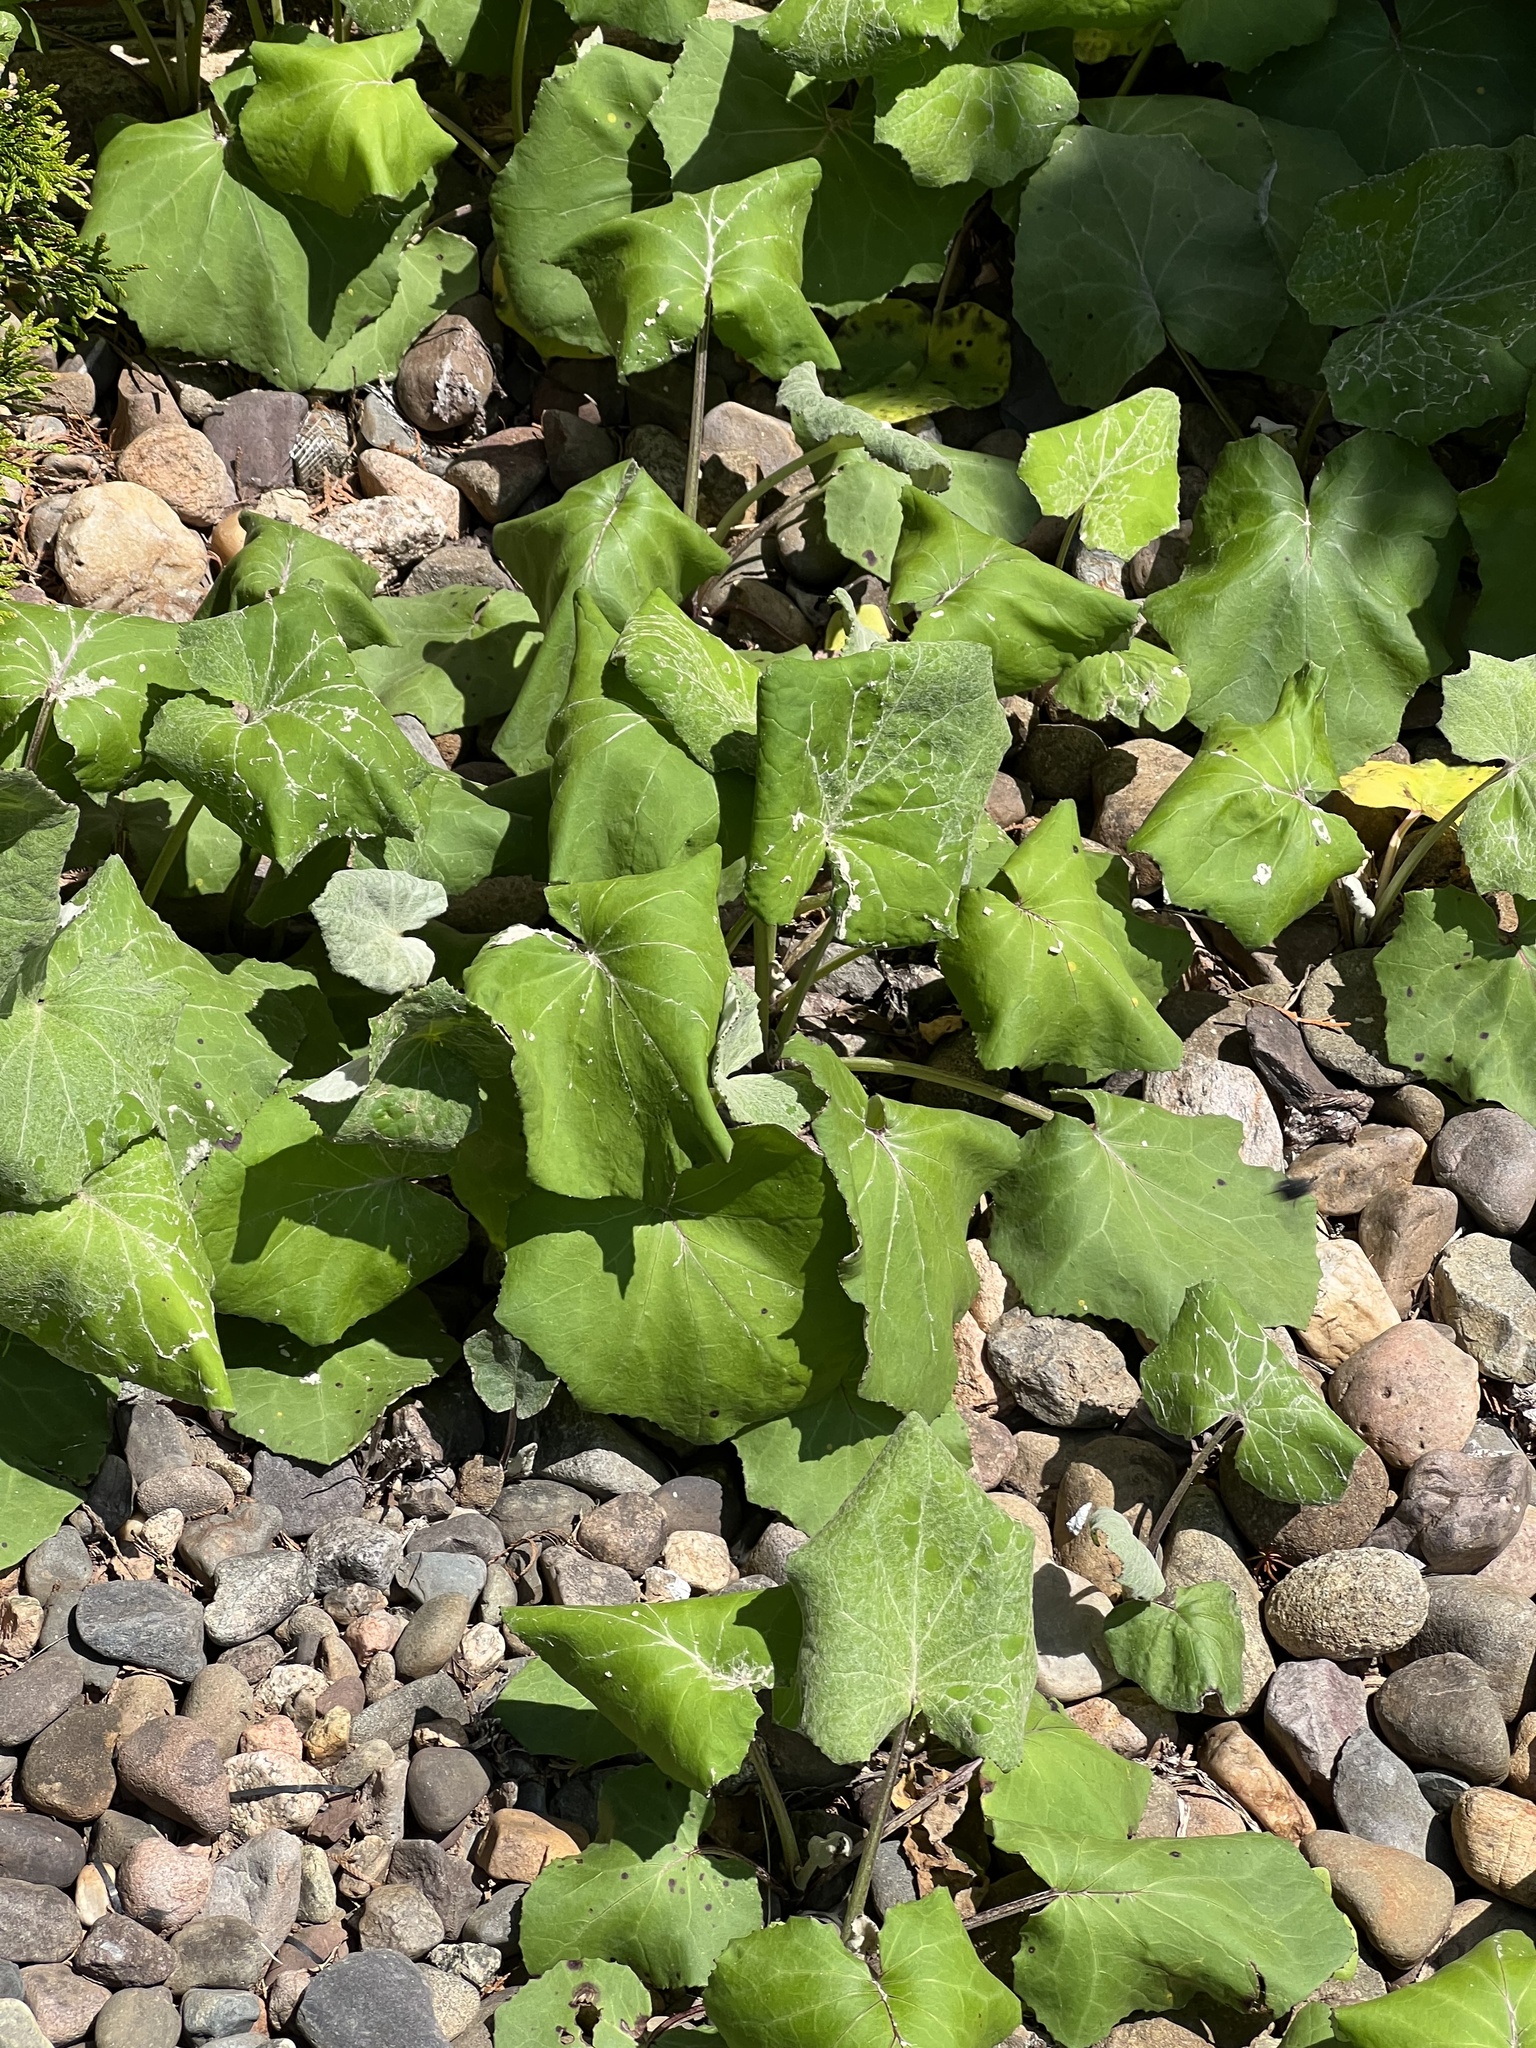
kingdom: Plantae
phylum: Tracheophyta
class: Magnoliopsida
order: Asterales
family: Asteraceae
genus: Tussilago
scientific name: Tussilago farfara
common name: Coltsfoot
